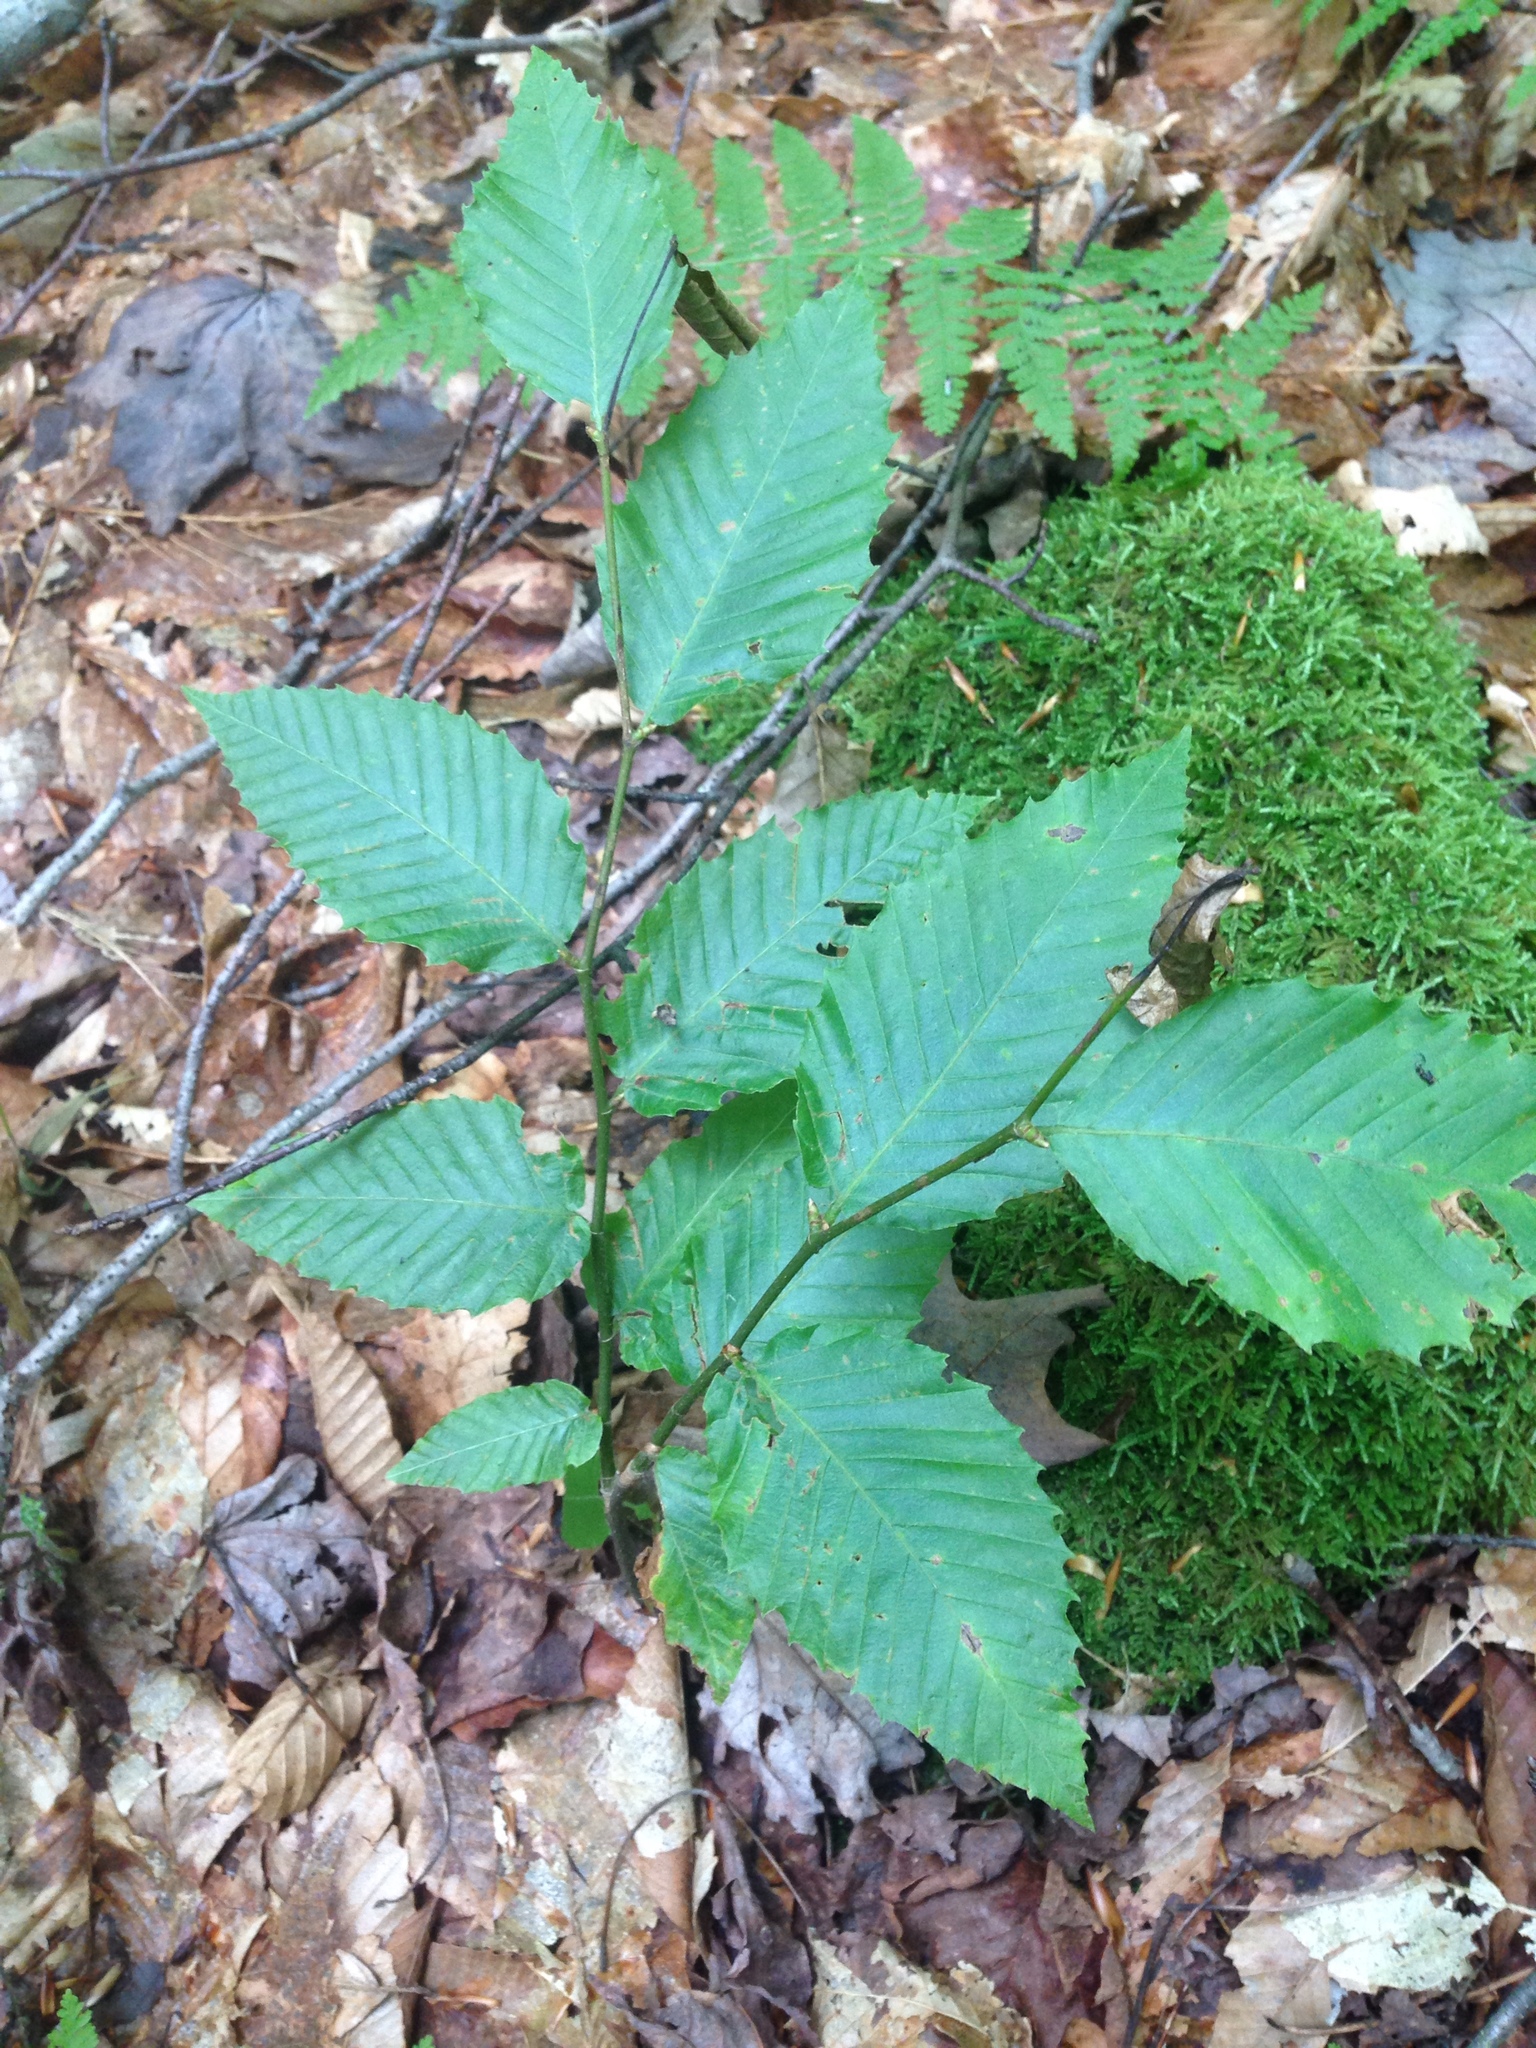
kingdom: Plantae
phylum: Tracheophyta
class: Magnoliopsida
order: Fagales
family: Fagaceae
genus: Fagus
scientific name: Fagus grandifolia
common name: American beech
